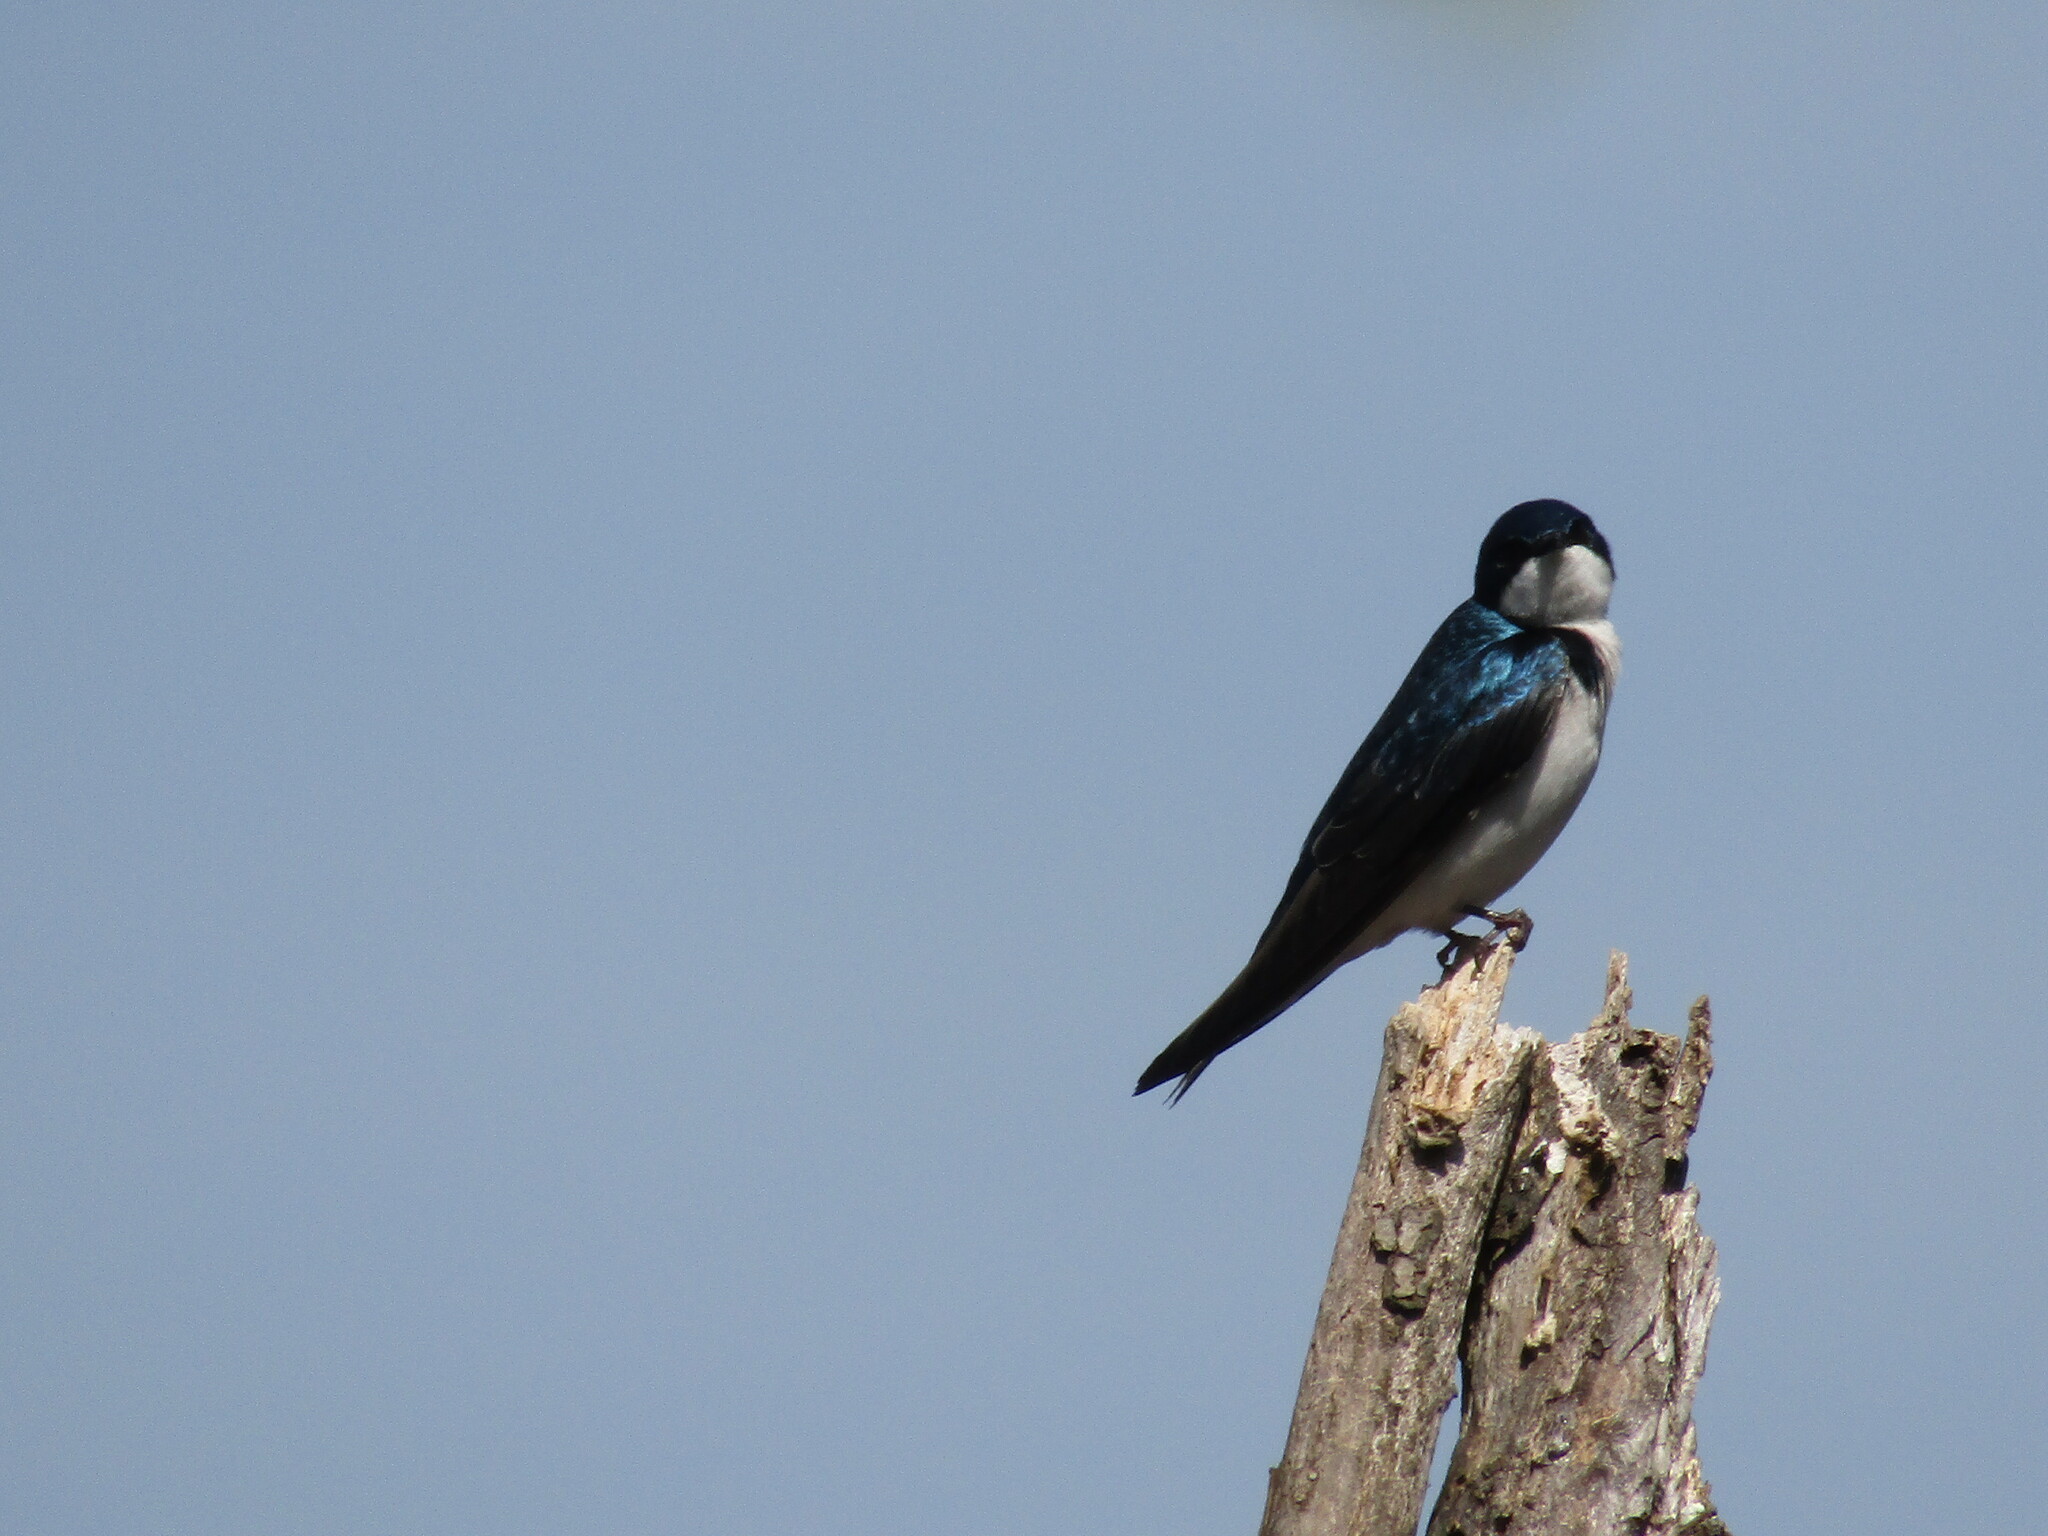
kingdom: Animalia
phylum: Chordata
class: Aves
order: Passeriformes
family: Hirundinidae
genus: Tachycineta
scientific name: Tachycineta bicolor
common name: Tree swallow
